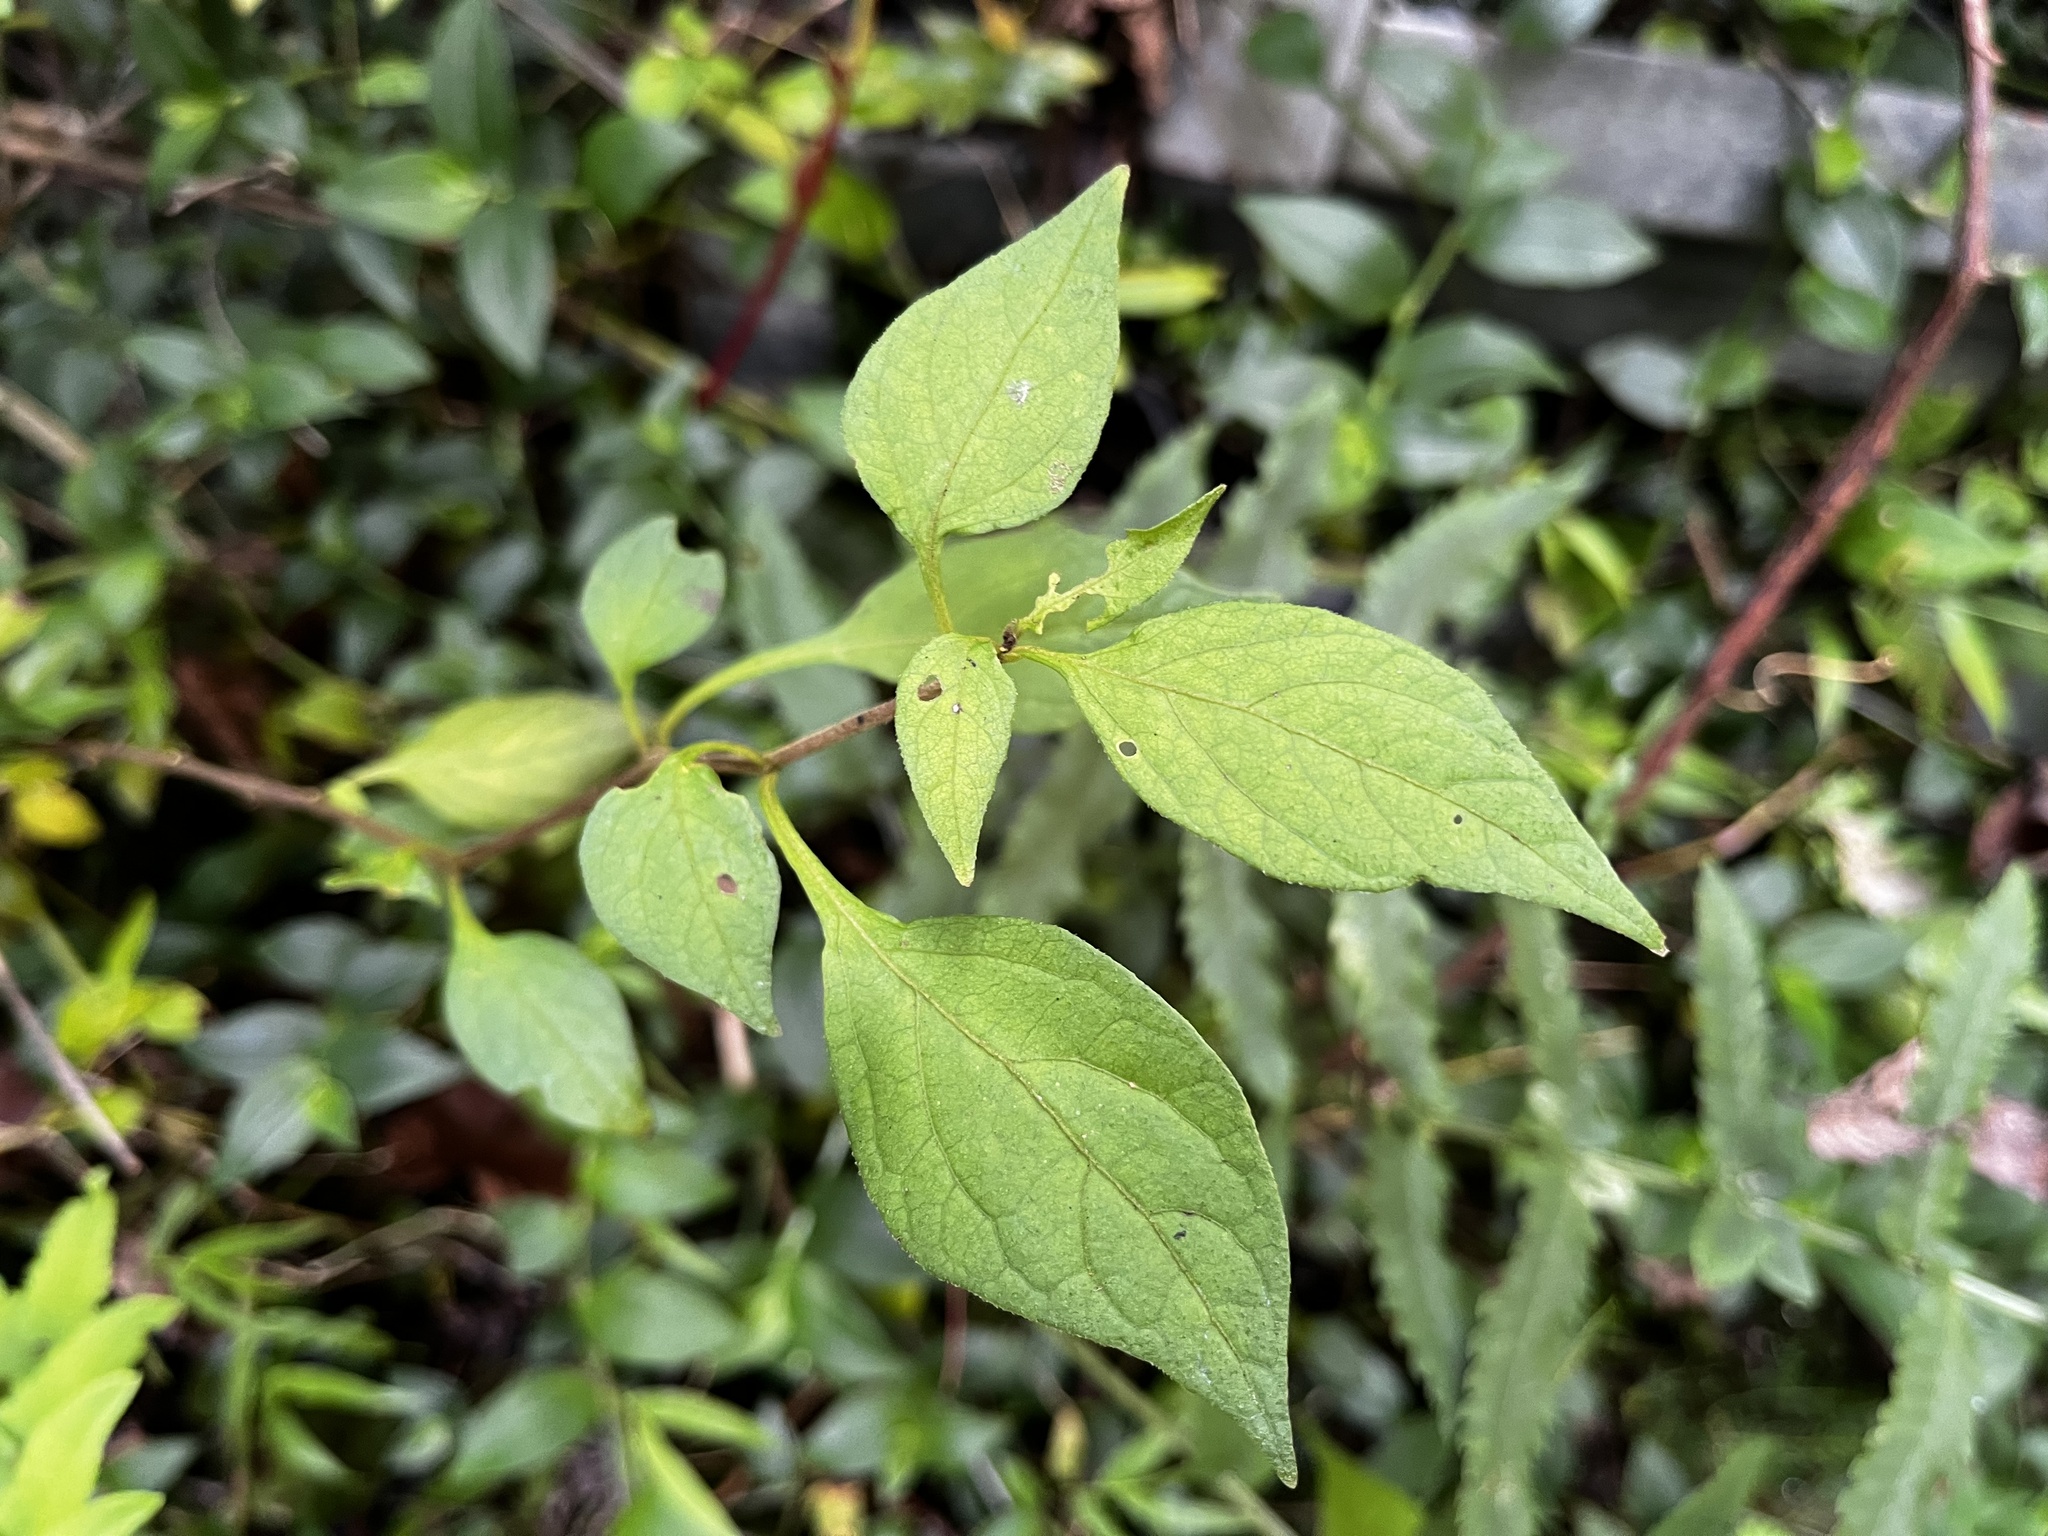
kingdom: Plantae
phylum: Tracheophyta
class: Magnoliopsida
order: Solanales
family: Solanaceae
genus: Lycianthes
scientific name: Lycianthes lysimachioides
